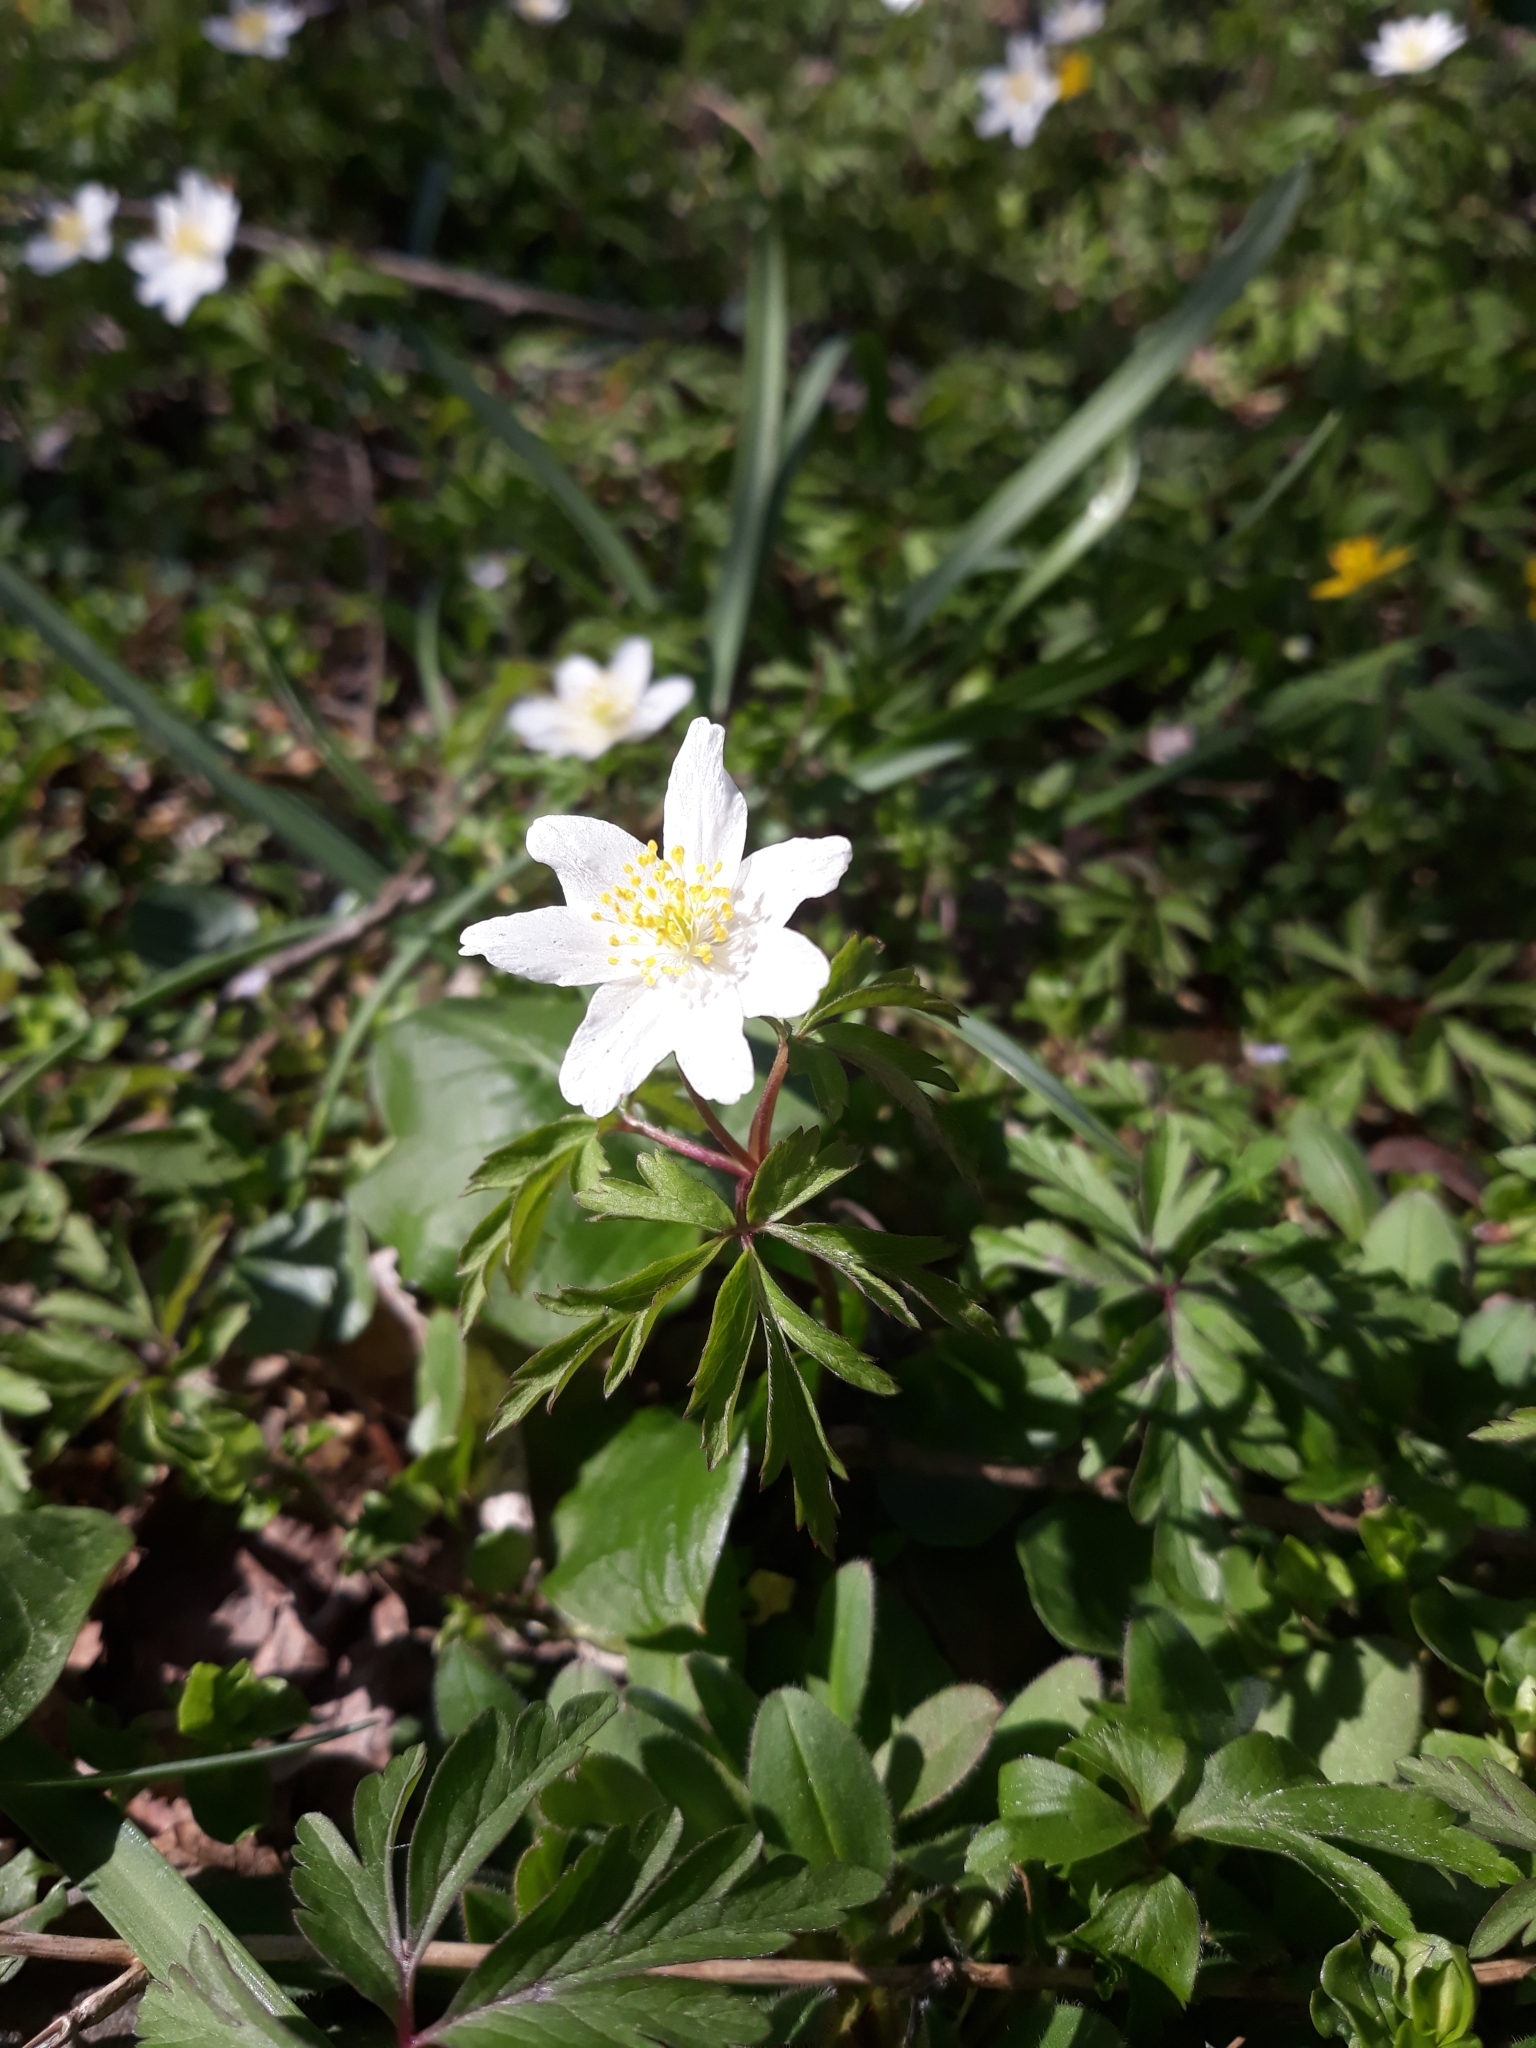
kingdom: Plantae
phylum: Tracheophyta
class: Magnoliopsida
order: Ranunculales
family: Ranunculaceae
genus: Anemone
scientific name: Anemone nemorosa
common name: Wood anemone
